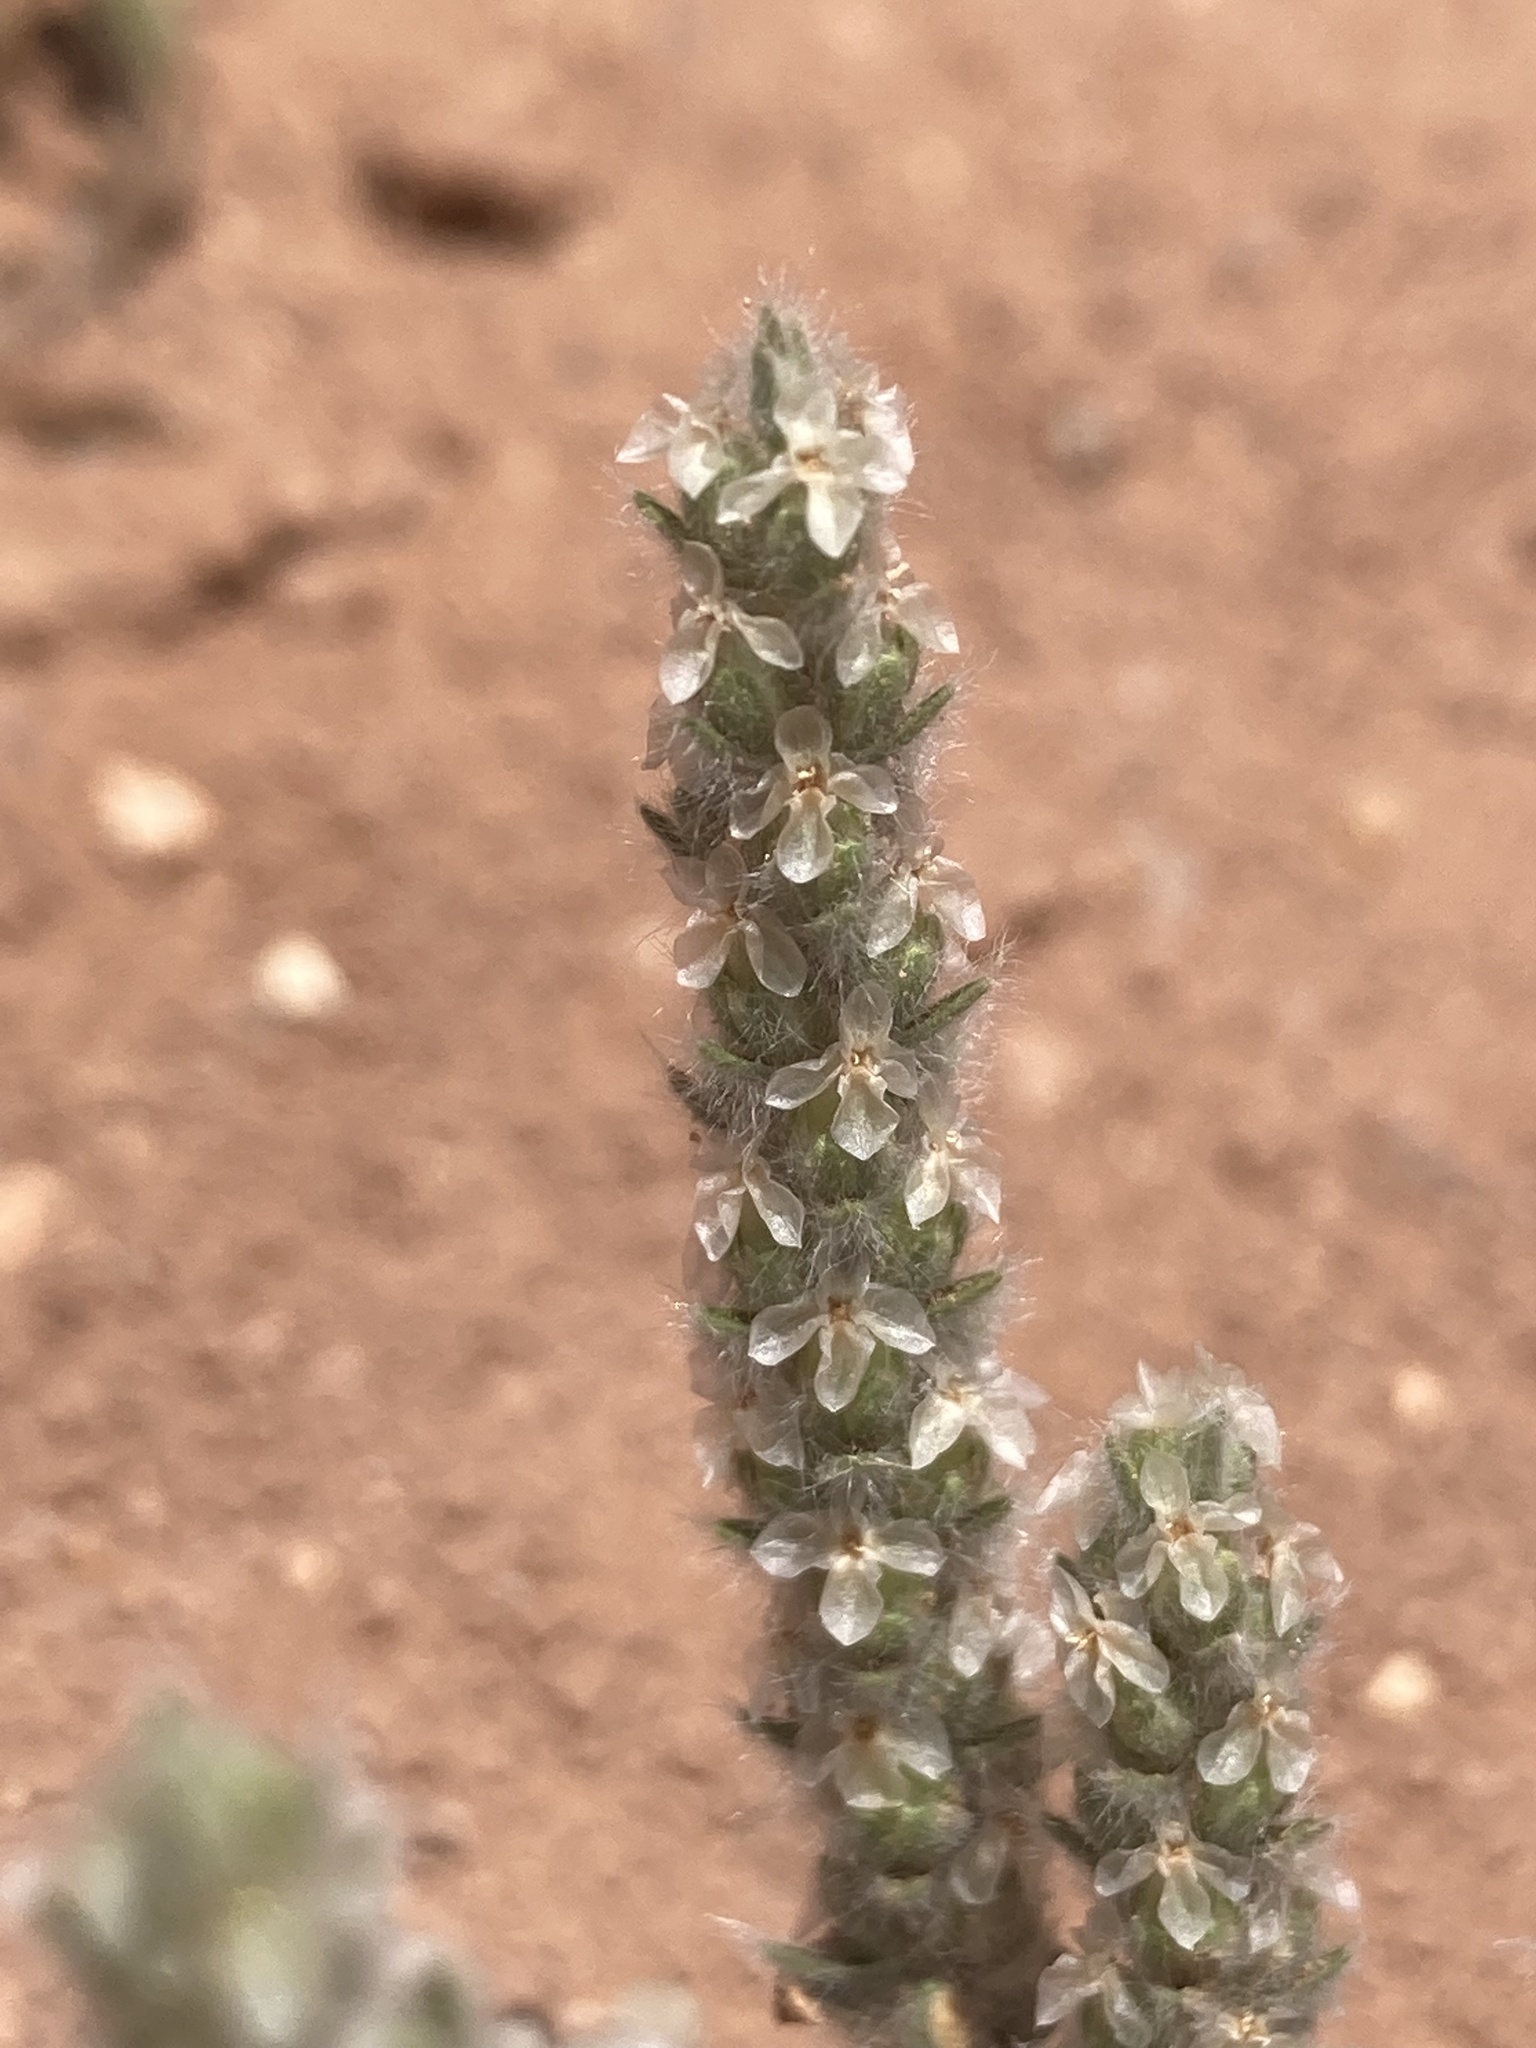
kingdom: Plantae
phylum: Tracheophyta
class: Magnoliopsida
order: Lamiales
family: Plantaginaceae
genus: Plantago
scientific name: Plantago patagonica
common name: Patagonia indian-wheat
